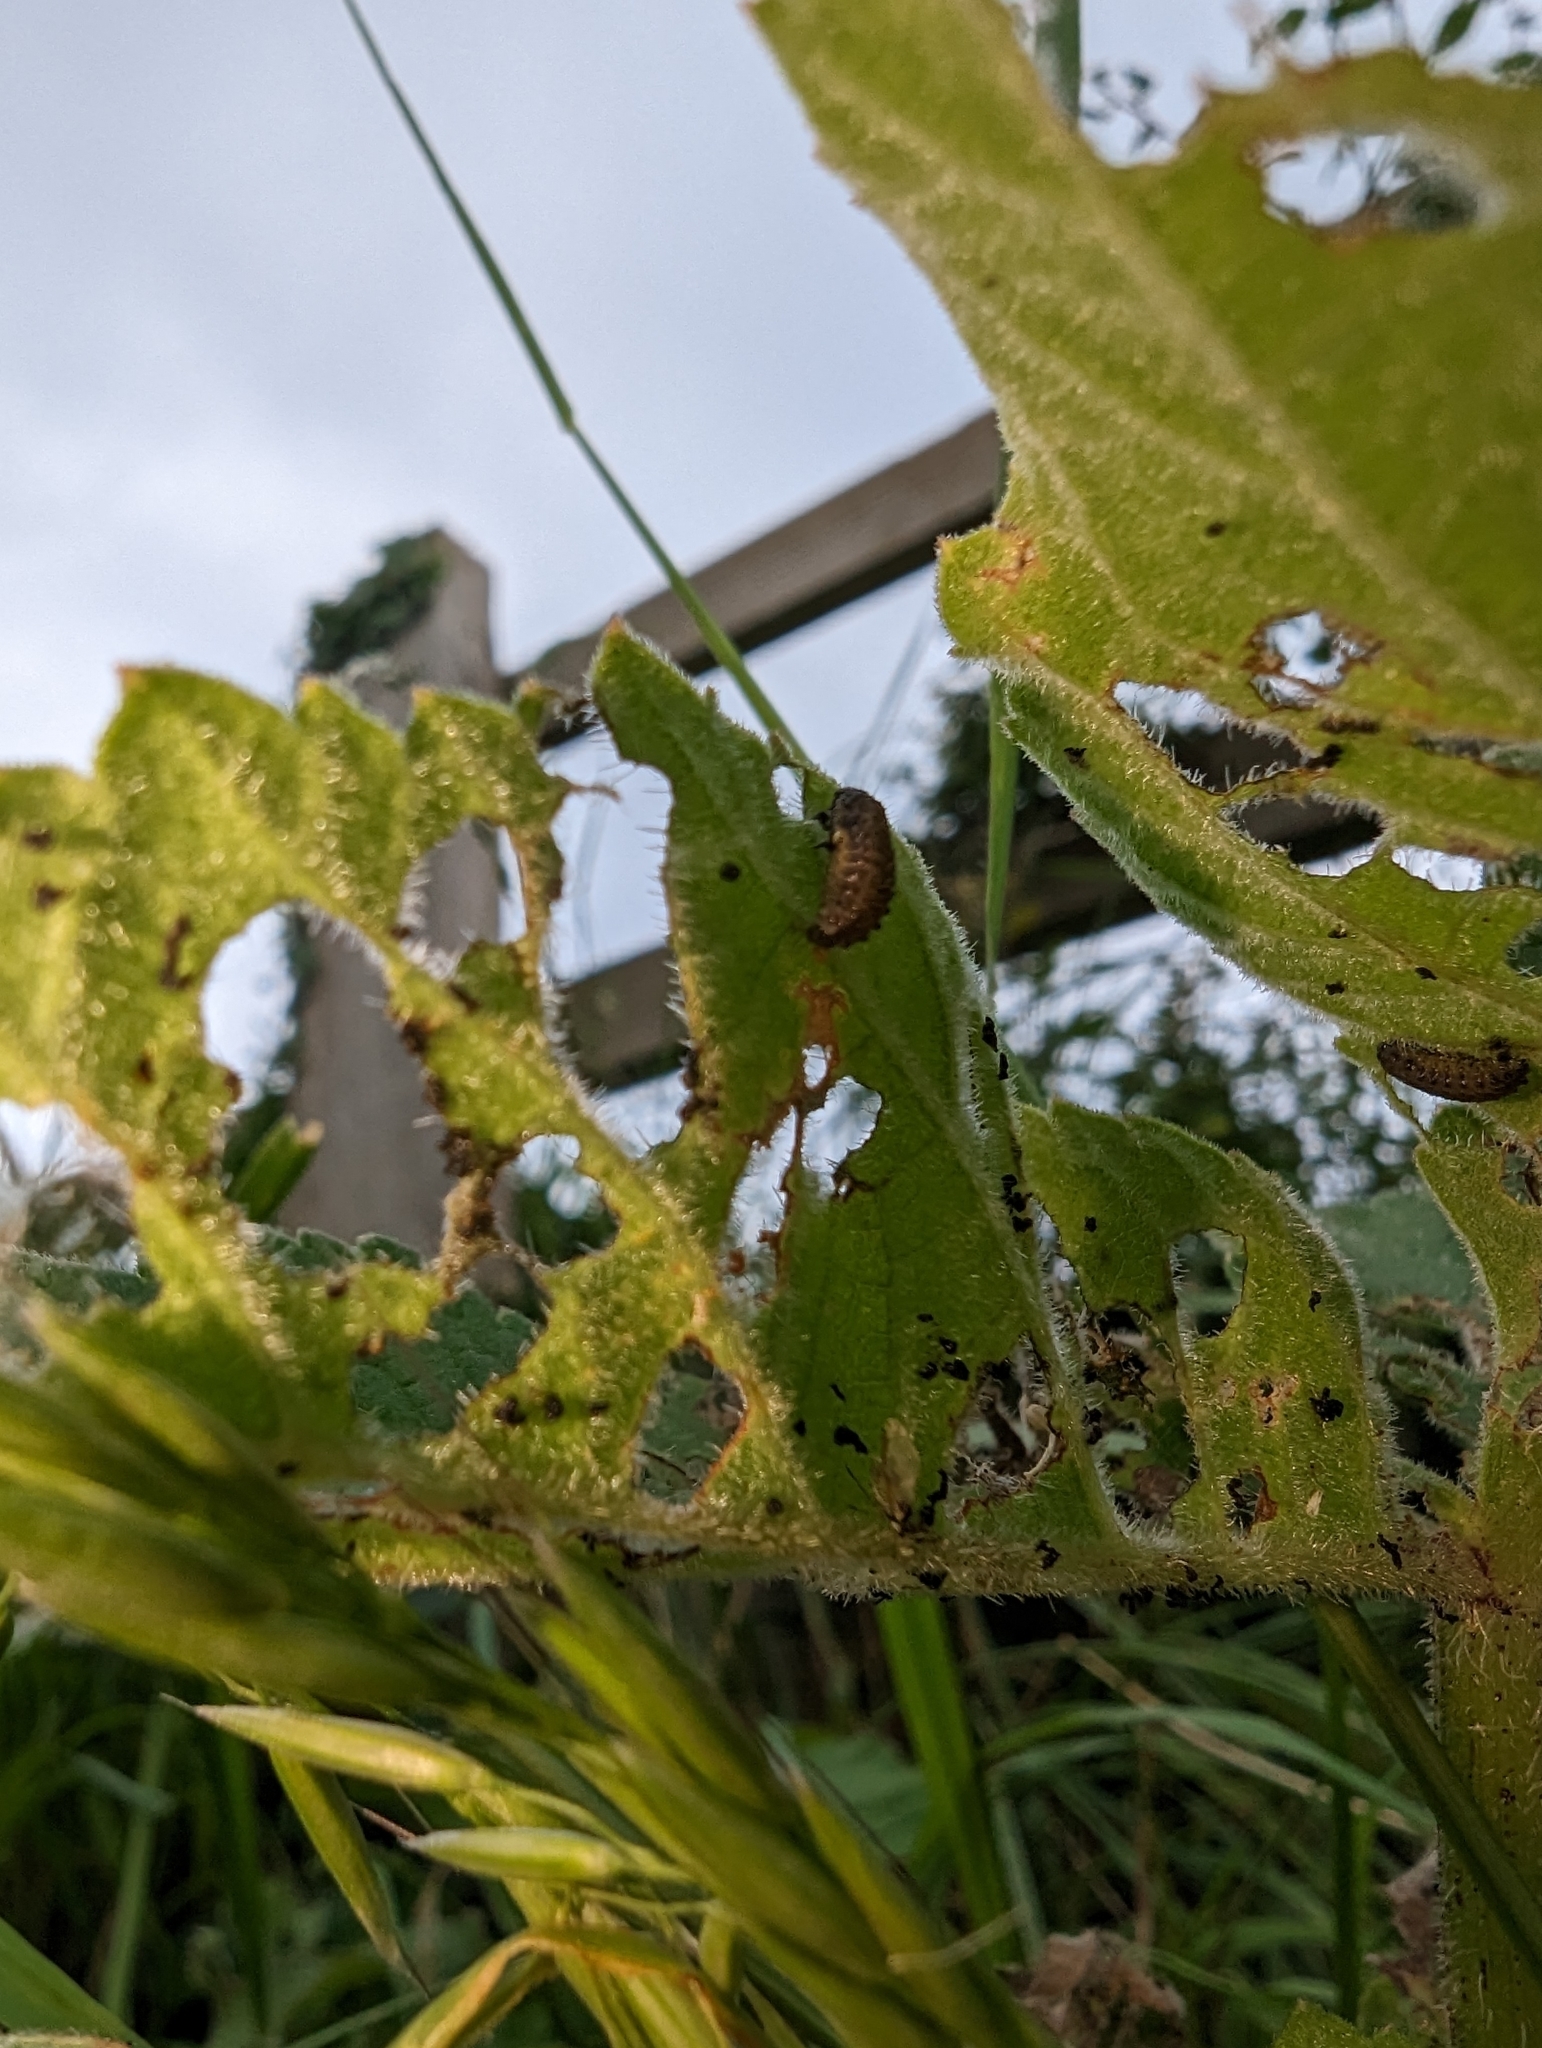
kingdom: Animalia
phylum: Arthropoda
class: Insecta
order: Coleoptera
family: Chrysomelidae
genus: Phaedon
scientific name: Phaedon tumidulus
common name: Celery leaf beetle
